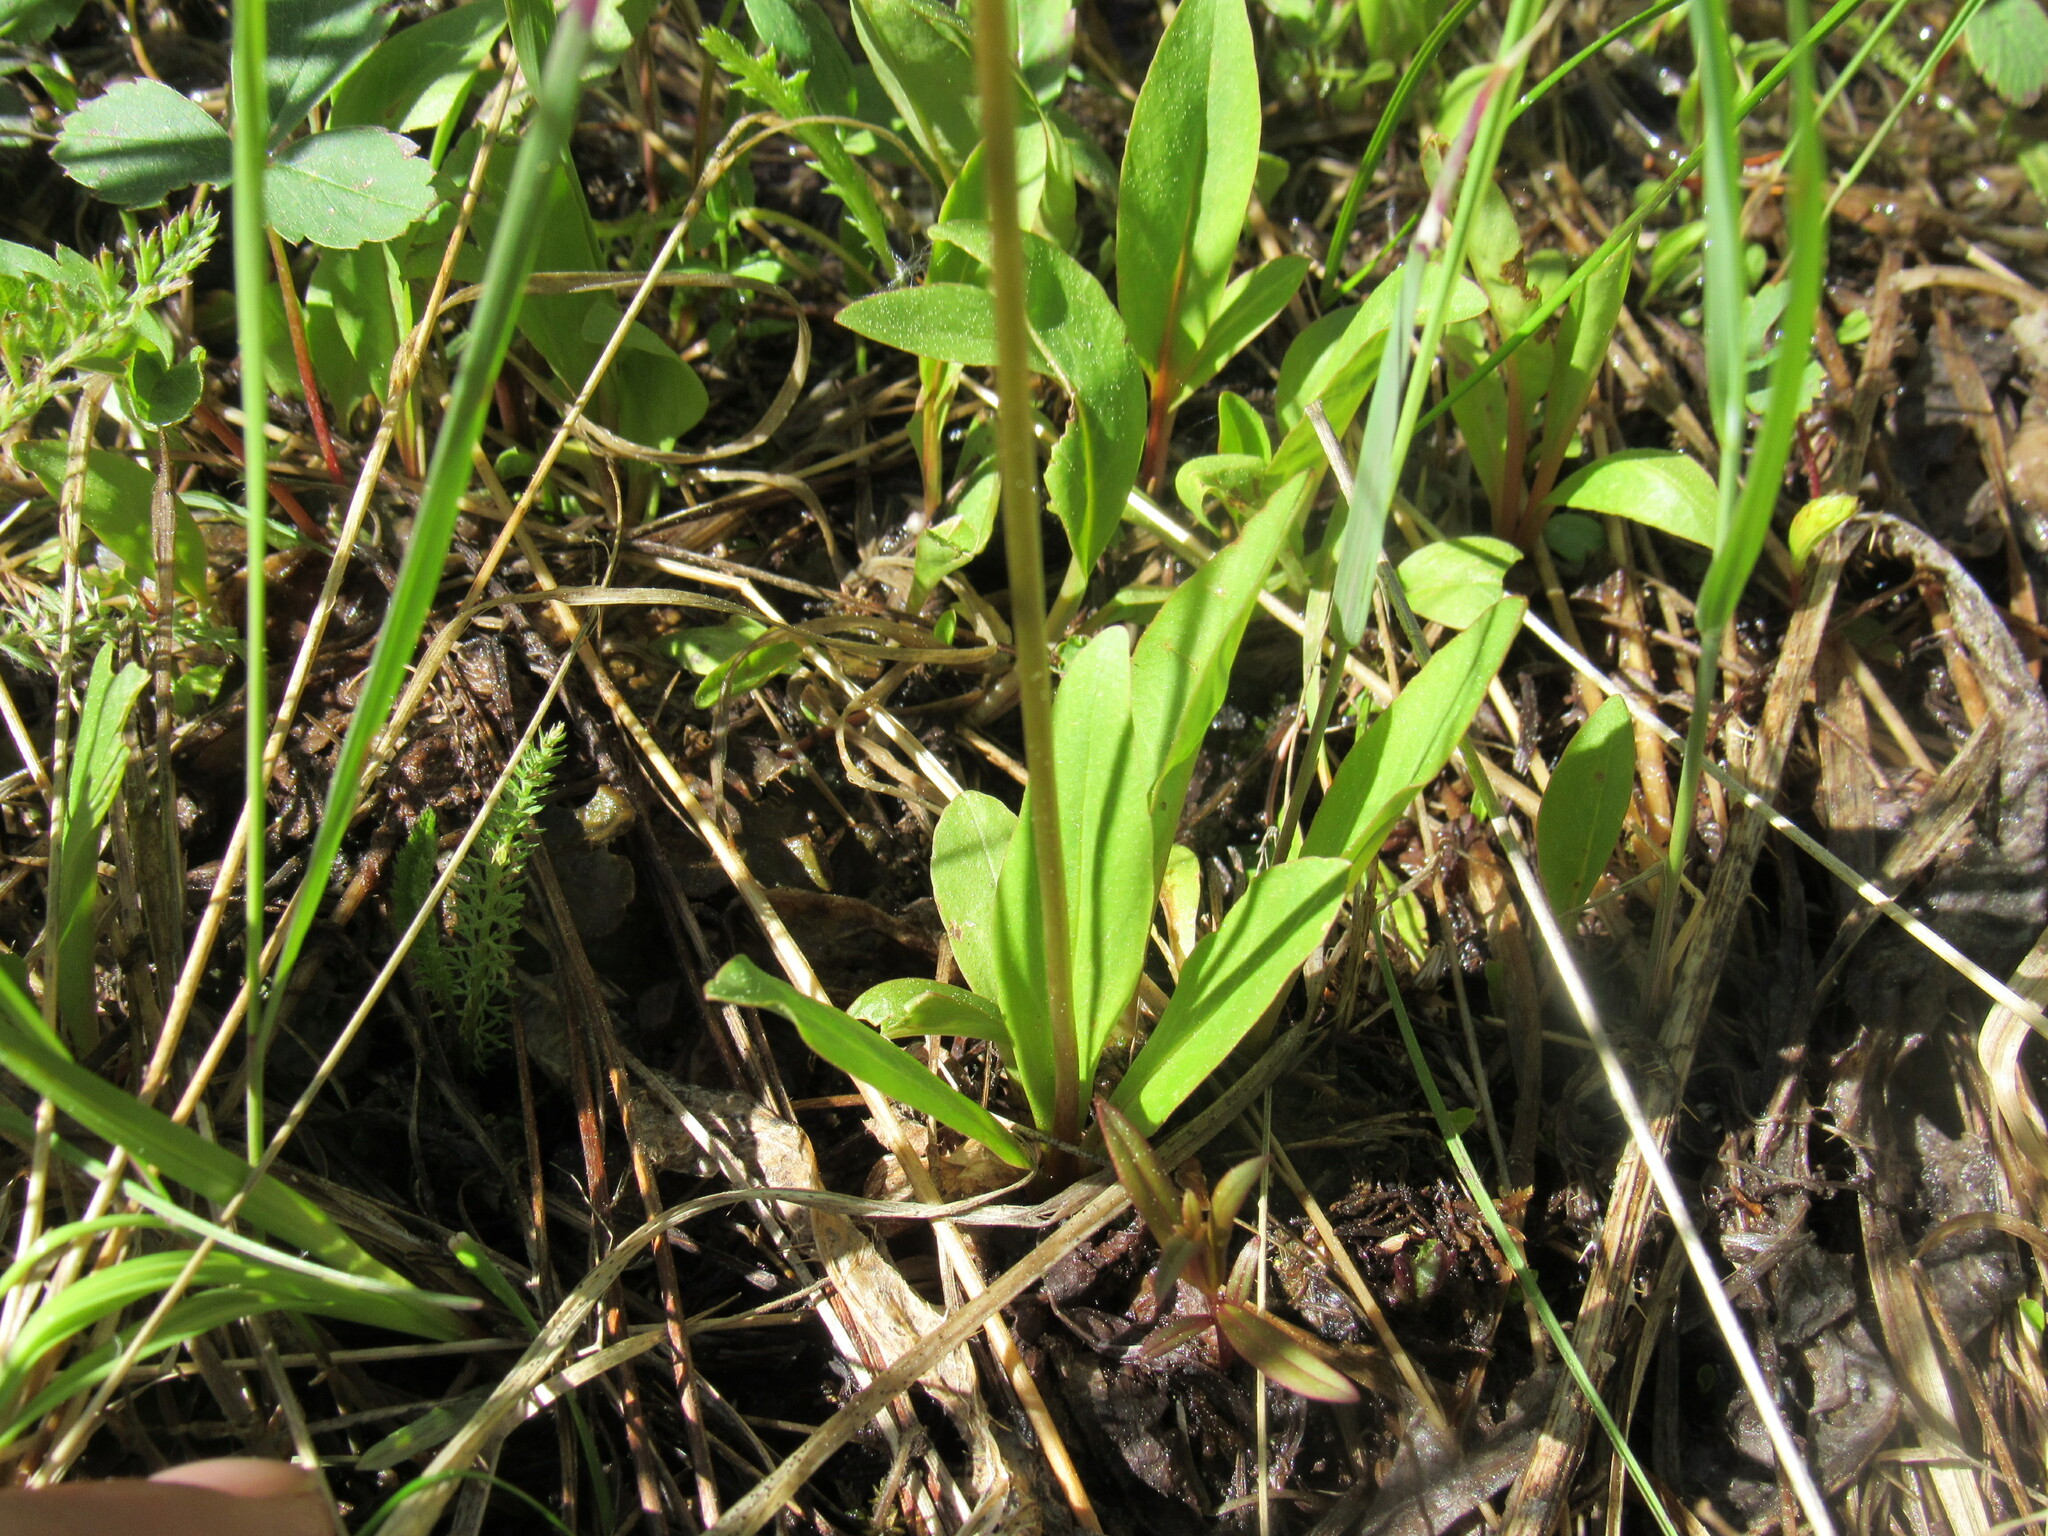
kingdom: Plantae
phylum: Tracheophyta
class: Magnoliopsida
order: Ericales
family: Primulaceae
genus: Dodecatheon
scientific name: Dodecatheon pulchellum
